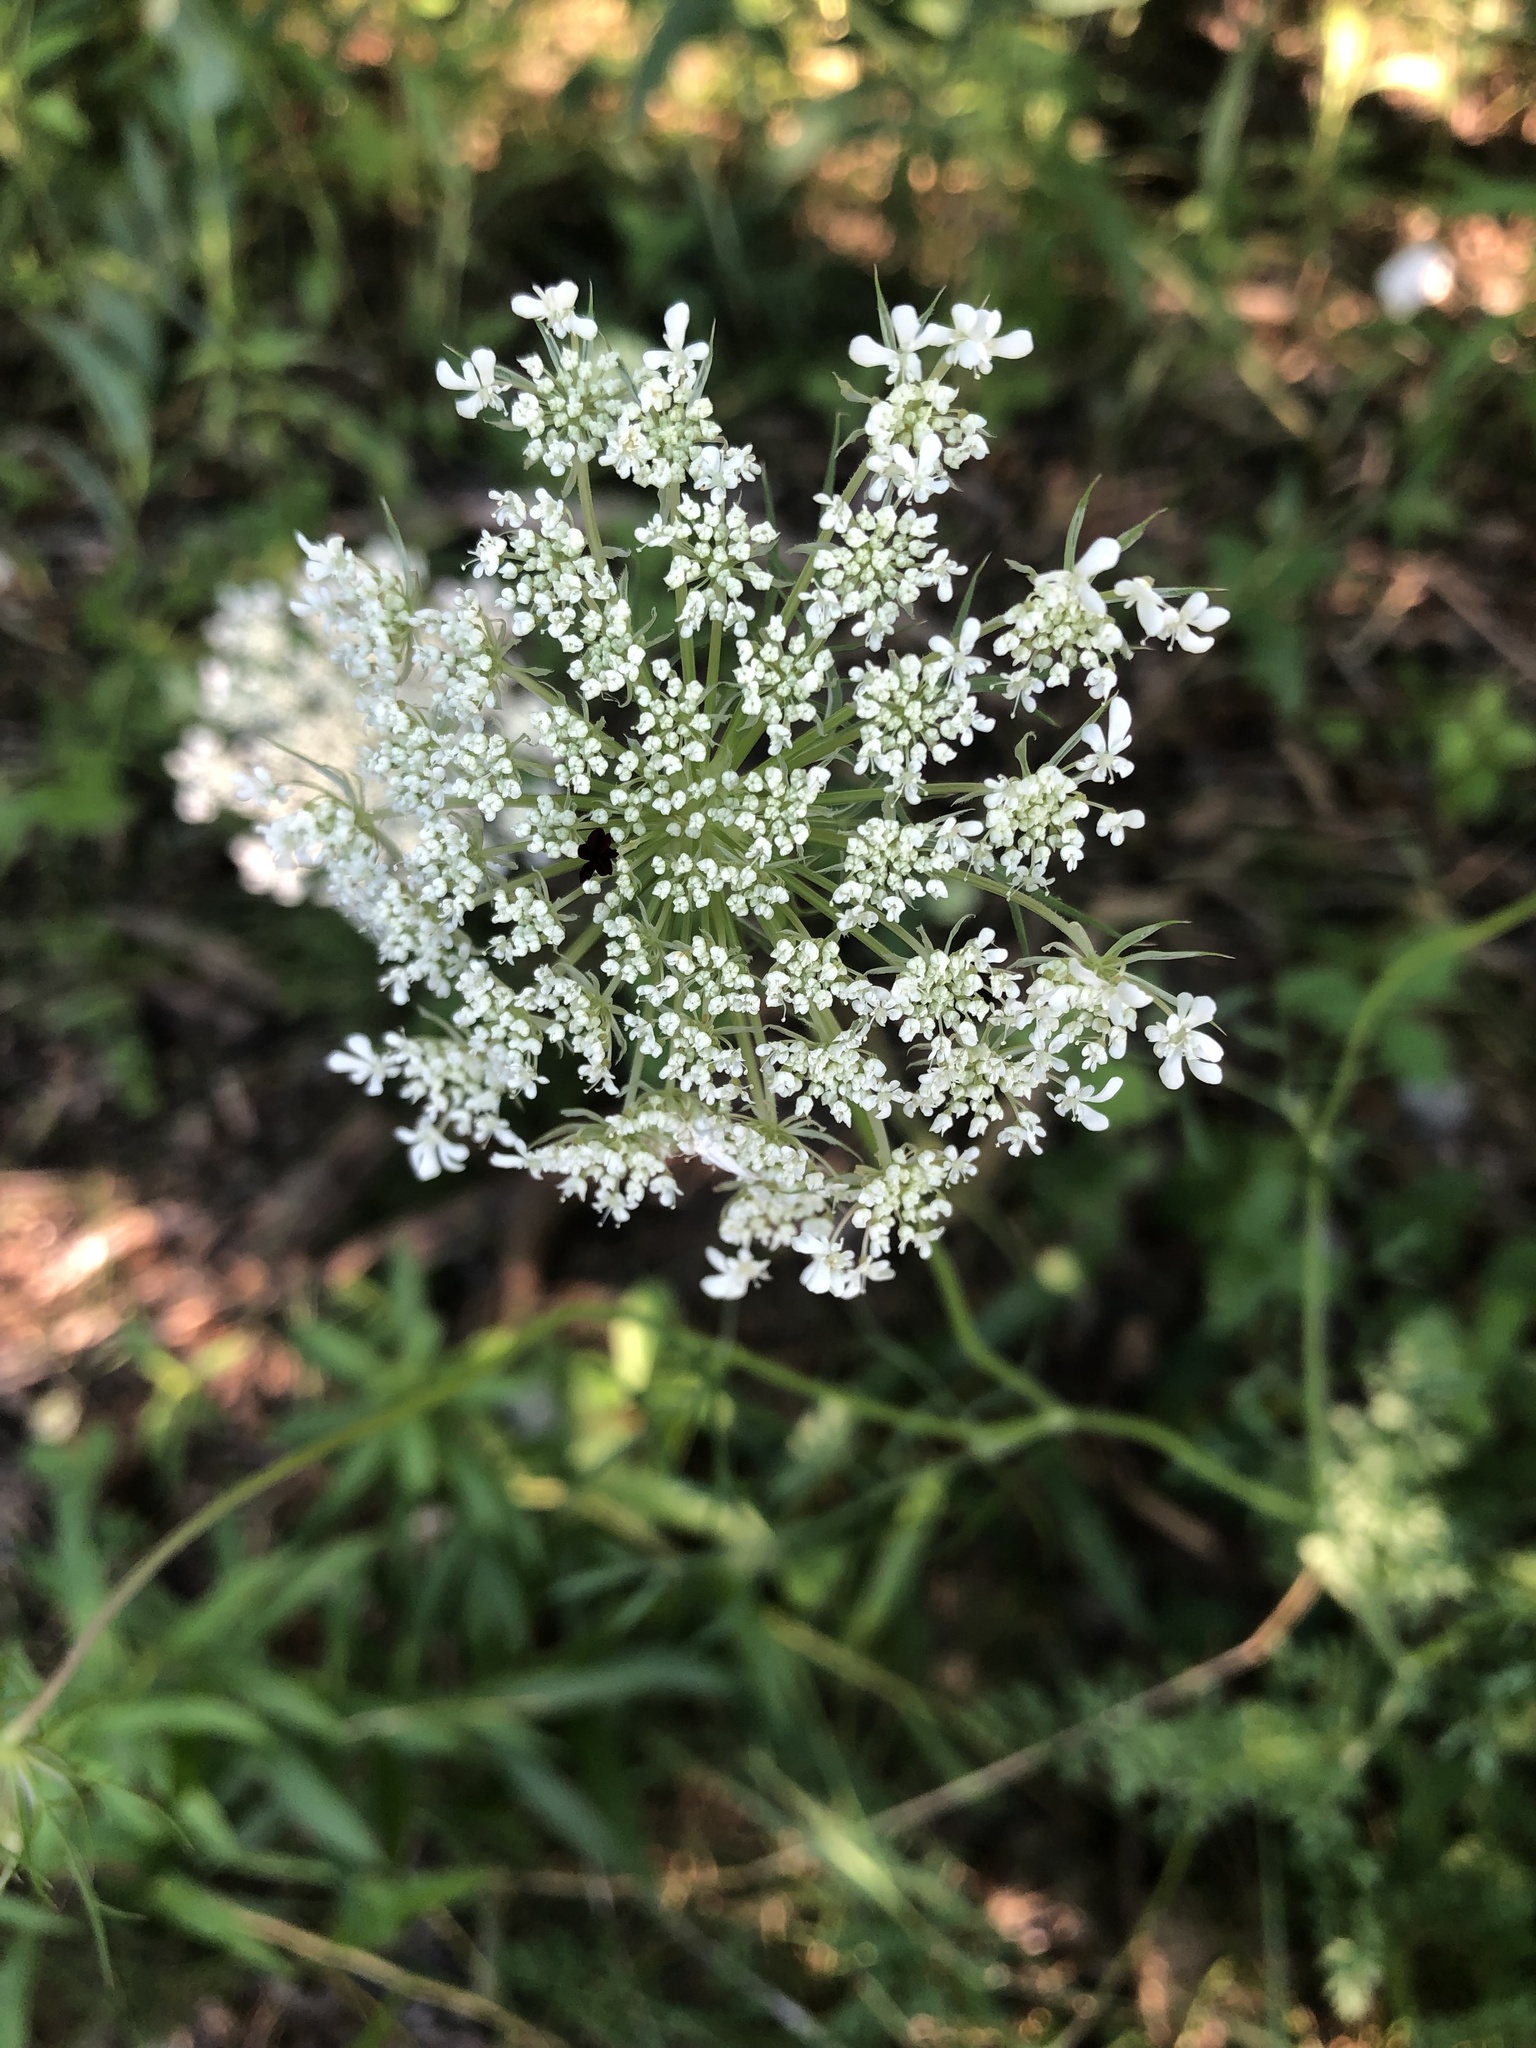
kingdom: Plantae
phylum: Tracheophyta
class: Magnoliopsida
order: Apiales
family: Apiaceae
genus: Daucus
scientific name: Daucus carota
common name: Wild carrot
